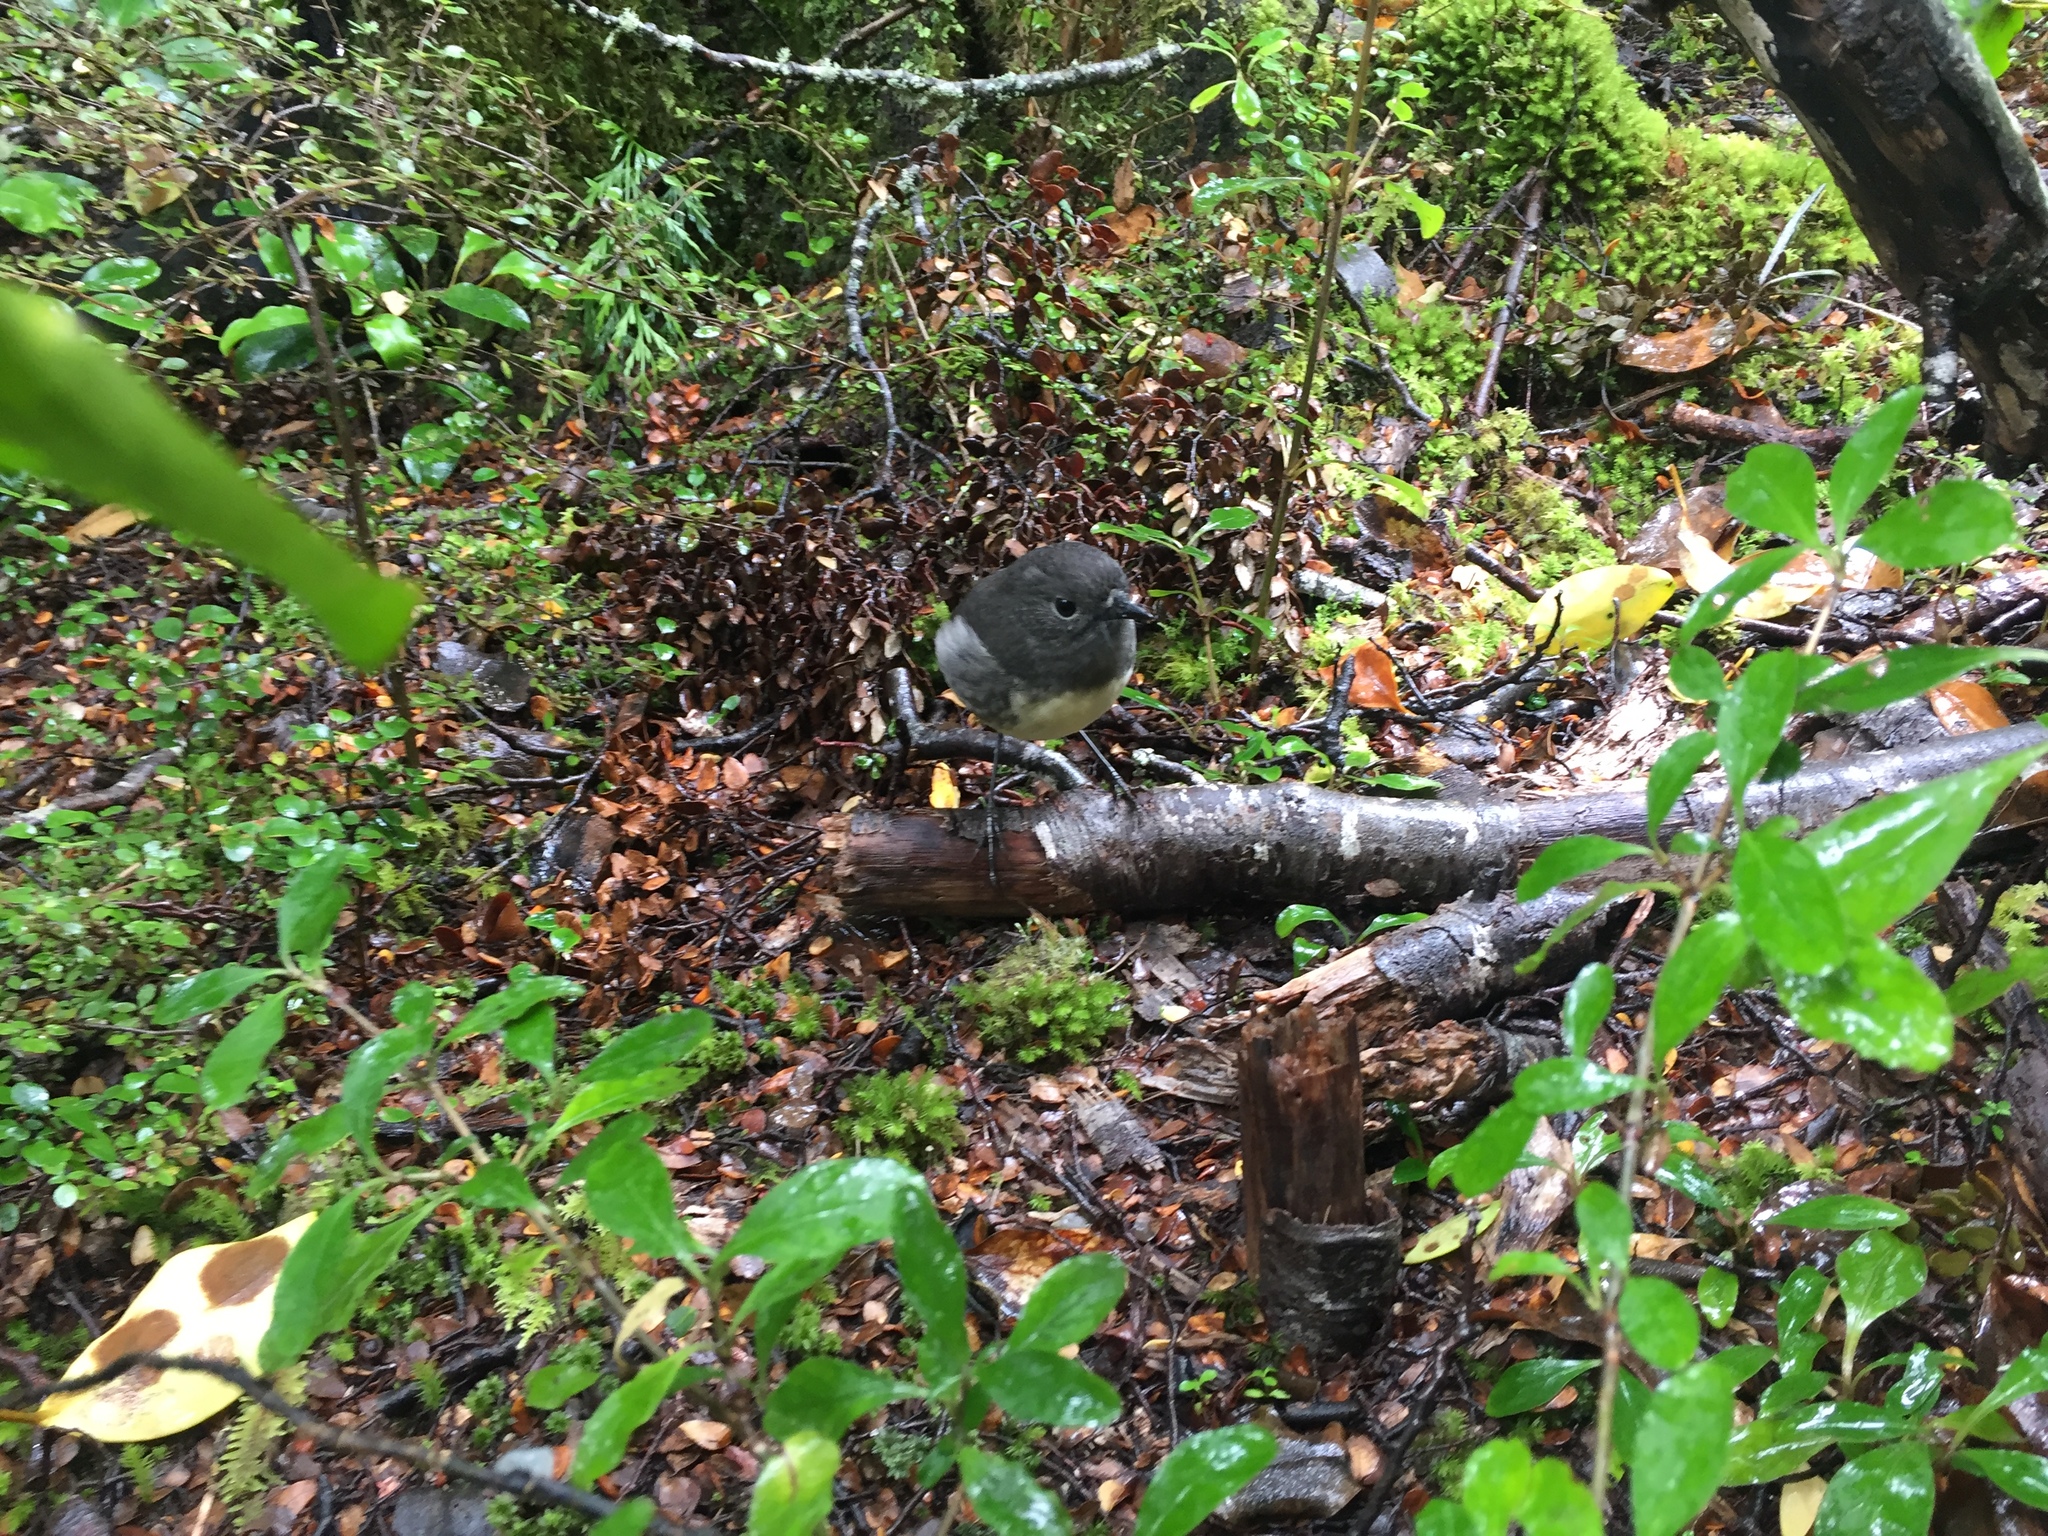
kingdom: Animalia
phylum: Chordata
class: Aves
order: Passeriformes
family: Petroicidae
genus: Petroica
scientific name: Petroica australis
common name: New zealand robin
